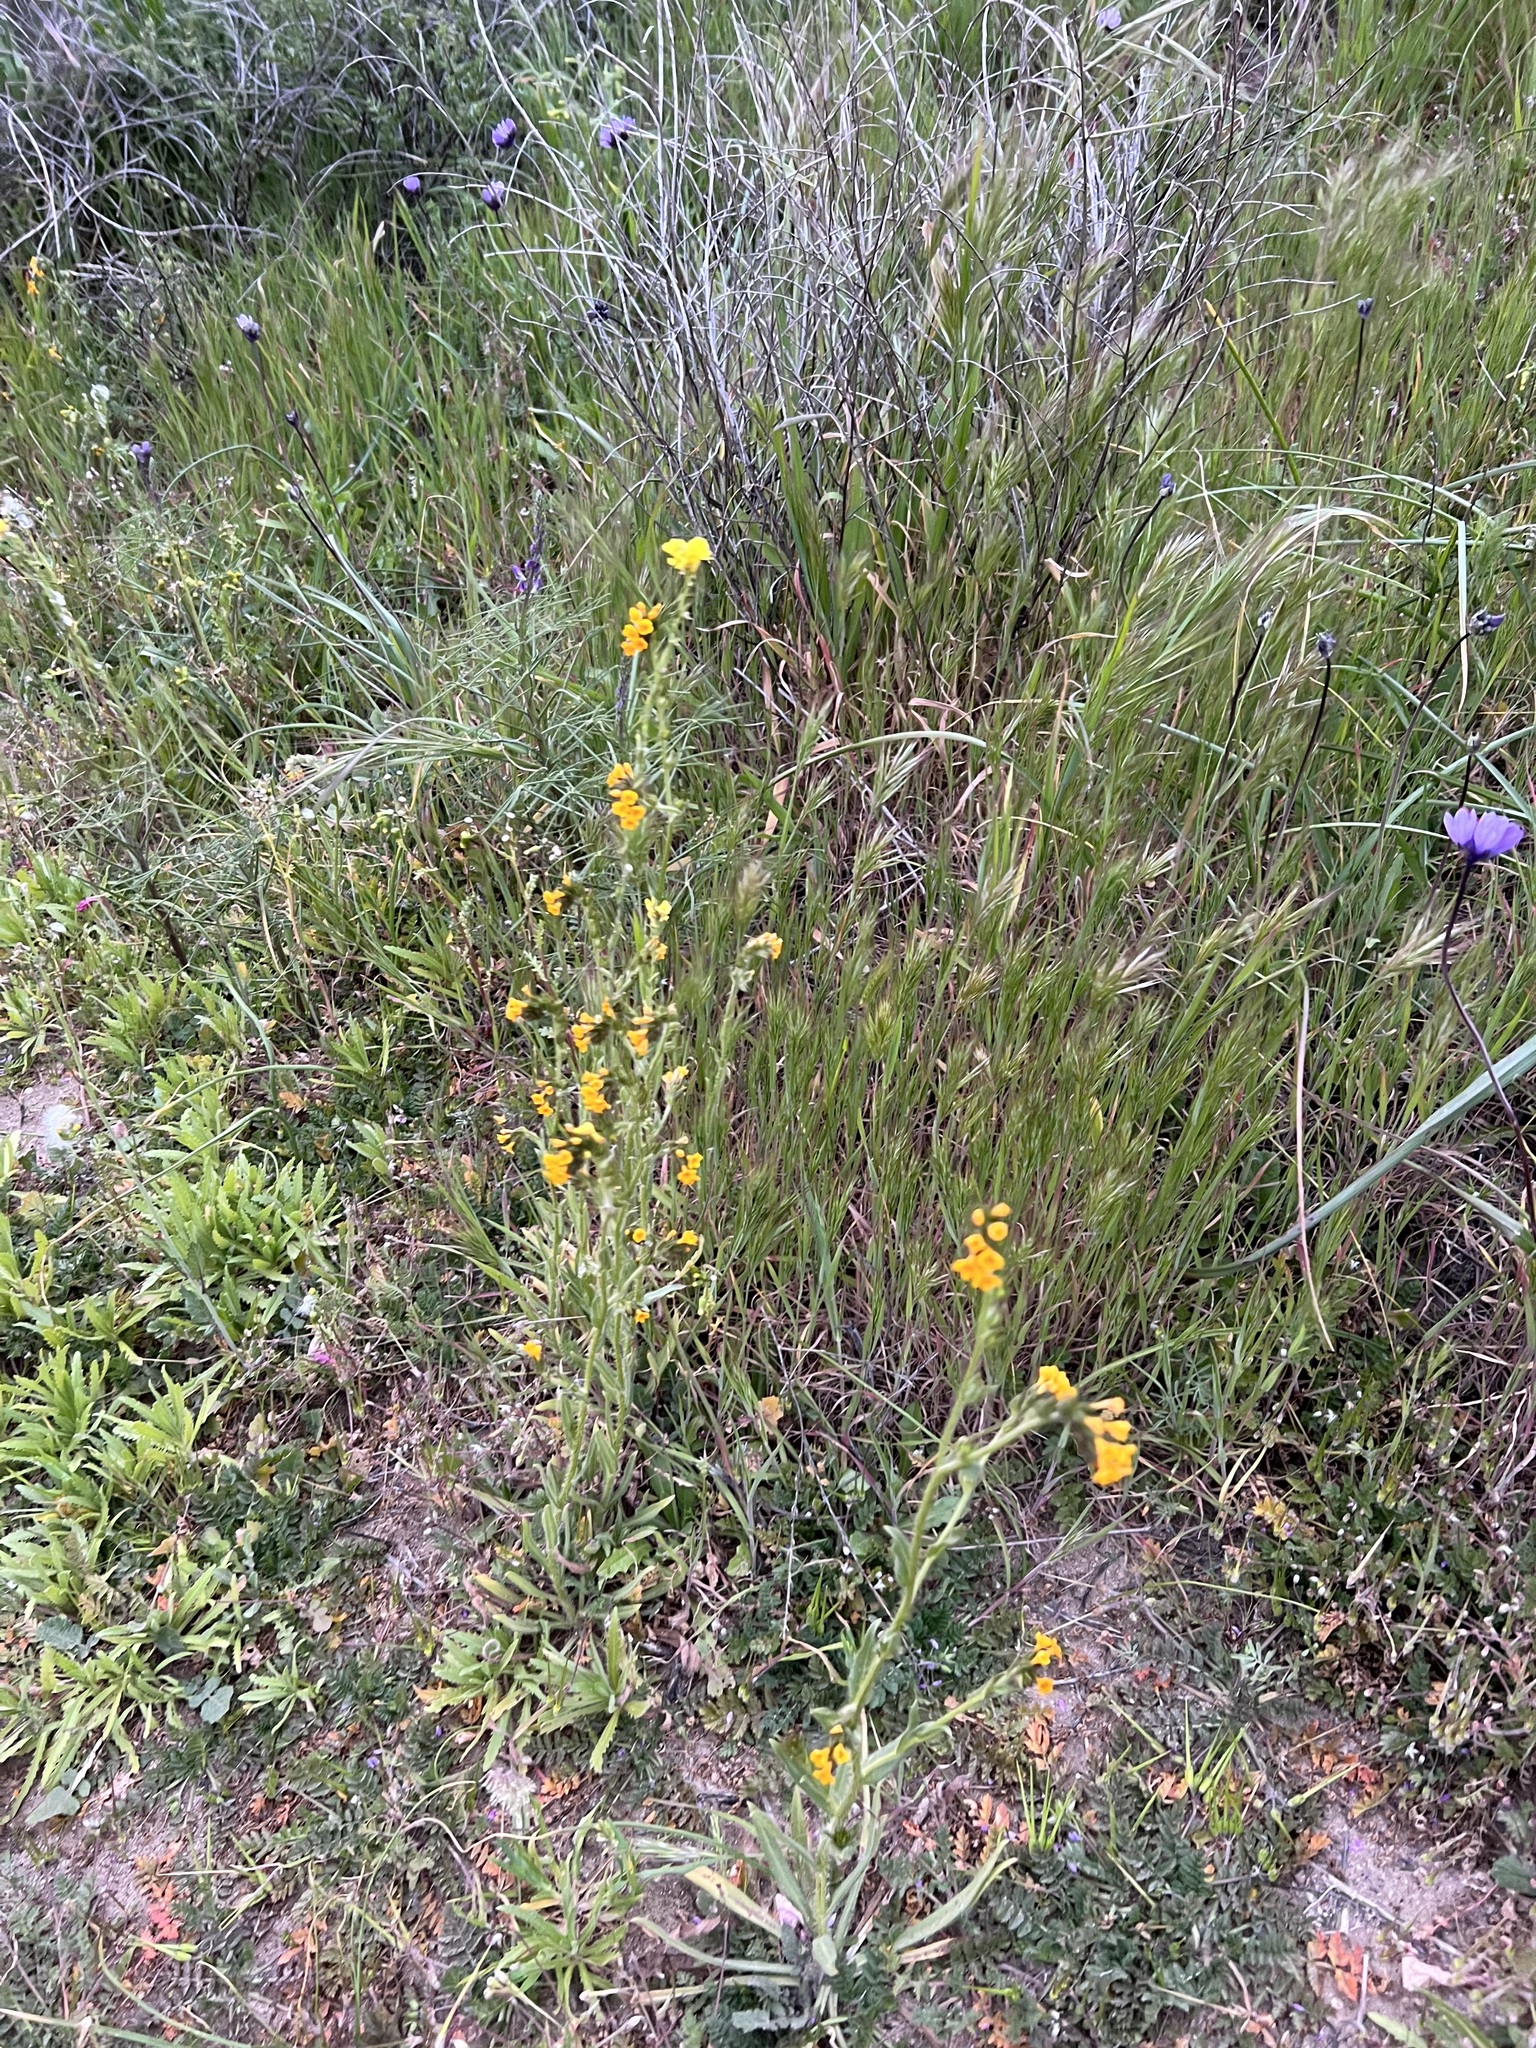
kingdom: Plantae
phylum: Tracheophyta
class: Magnoliopsida
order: Boraginales
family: Boraginaceae
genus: Amsinckia
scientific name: Amsinckia menziesii
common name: Menzies' fiddleneck
